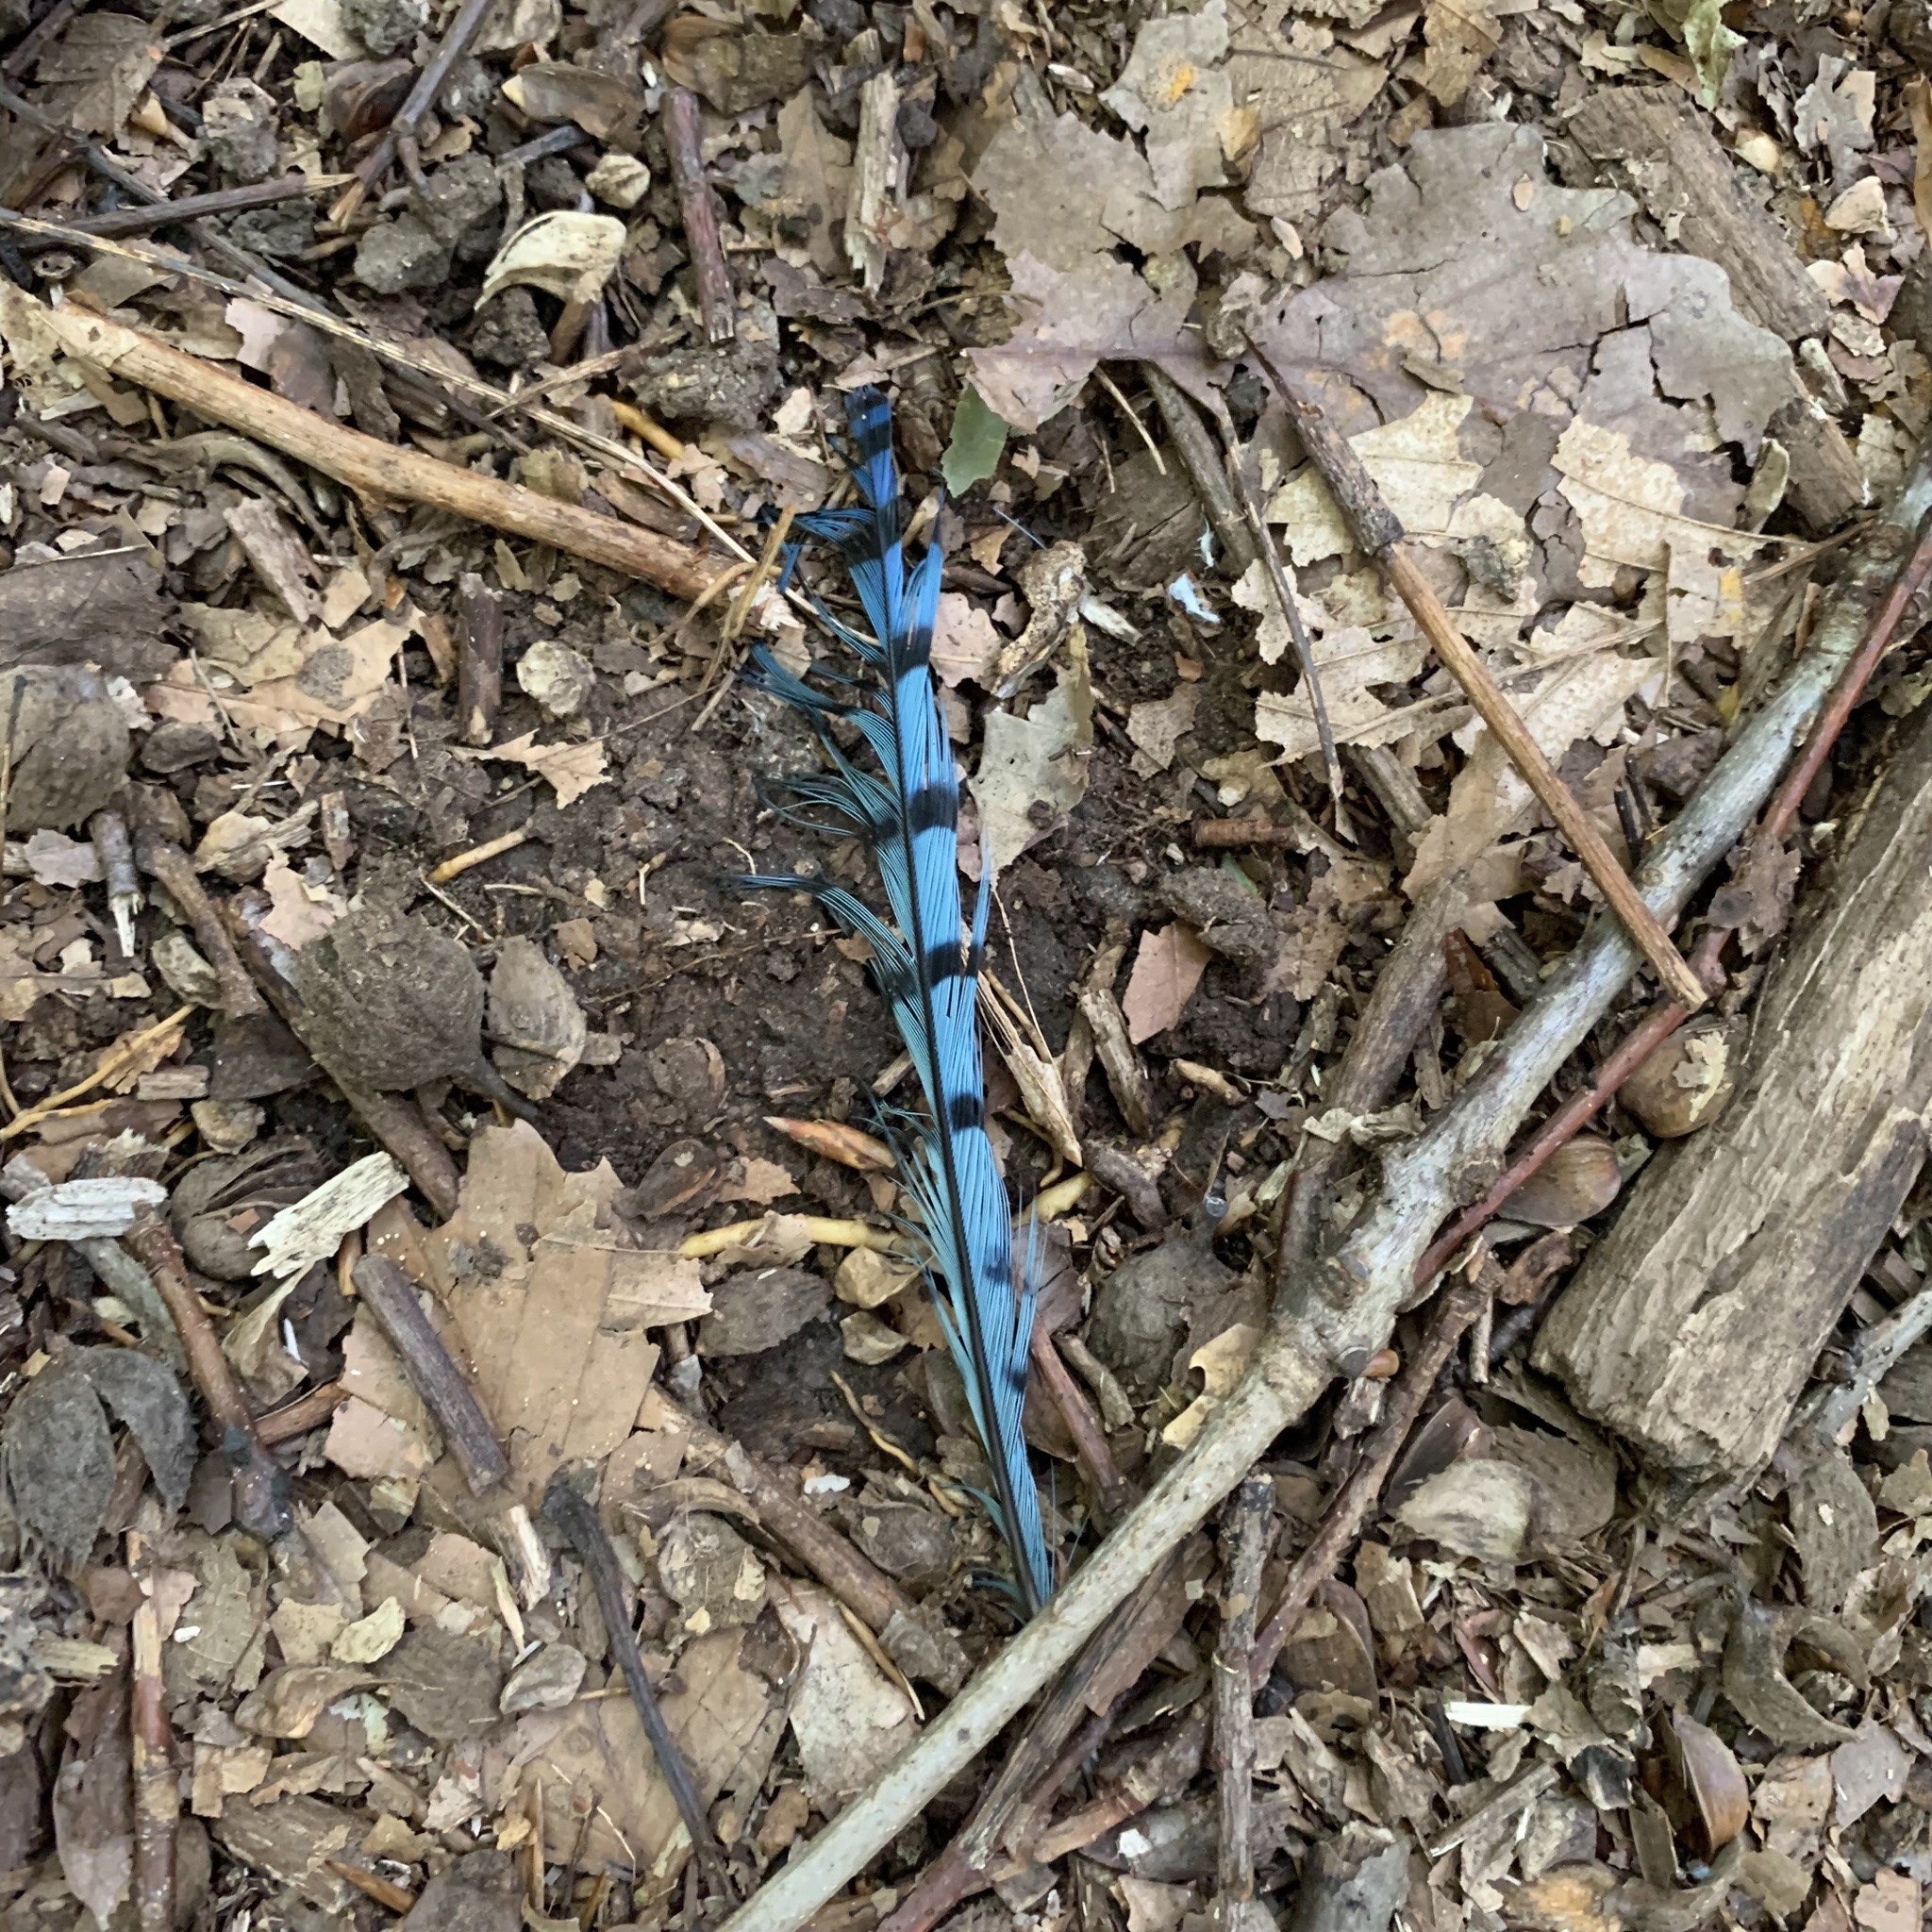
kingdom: Animalia
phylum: Chordata
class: Aves
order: Passeriformes
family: Corvidae
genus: Cyanocitta
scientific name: Cyanocitta cristata
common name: Blue jay
